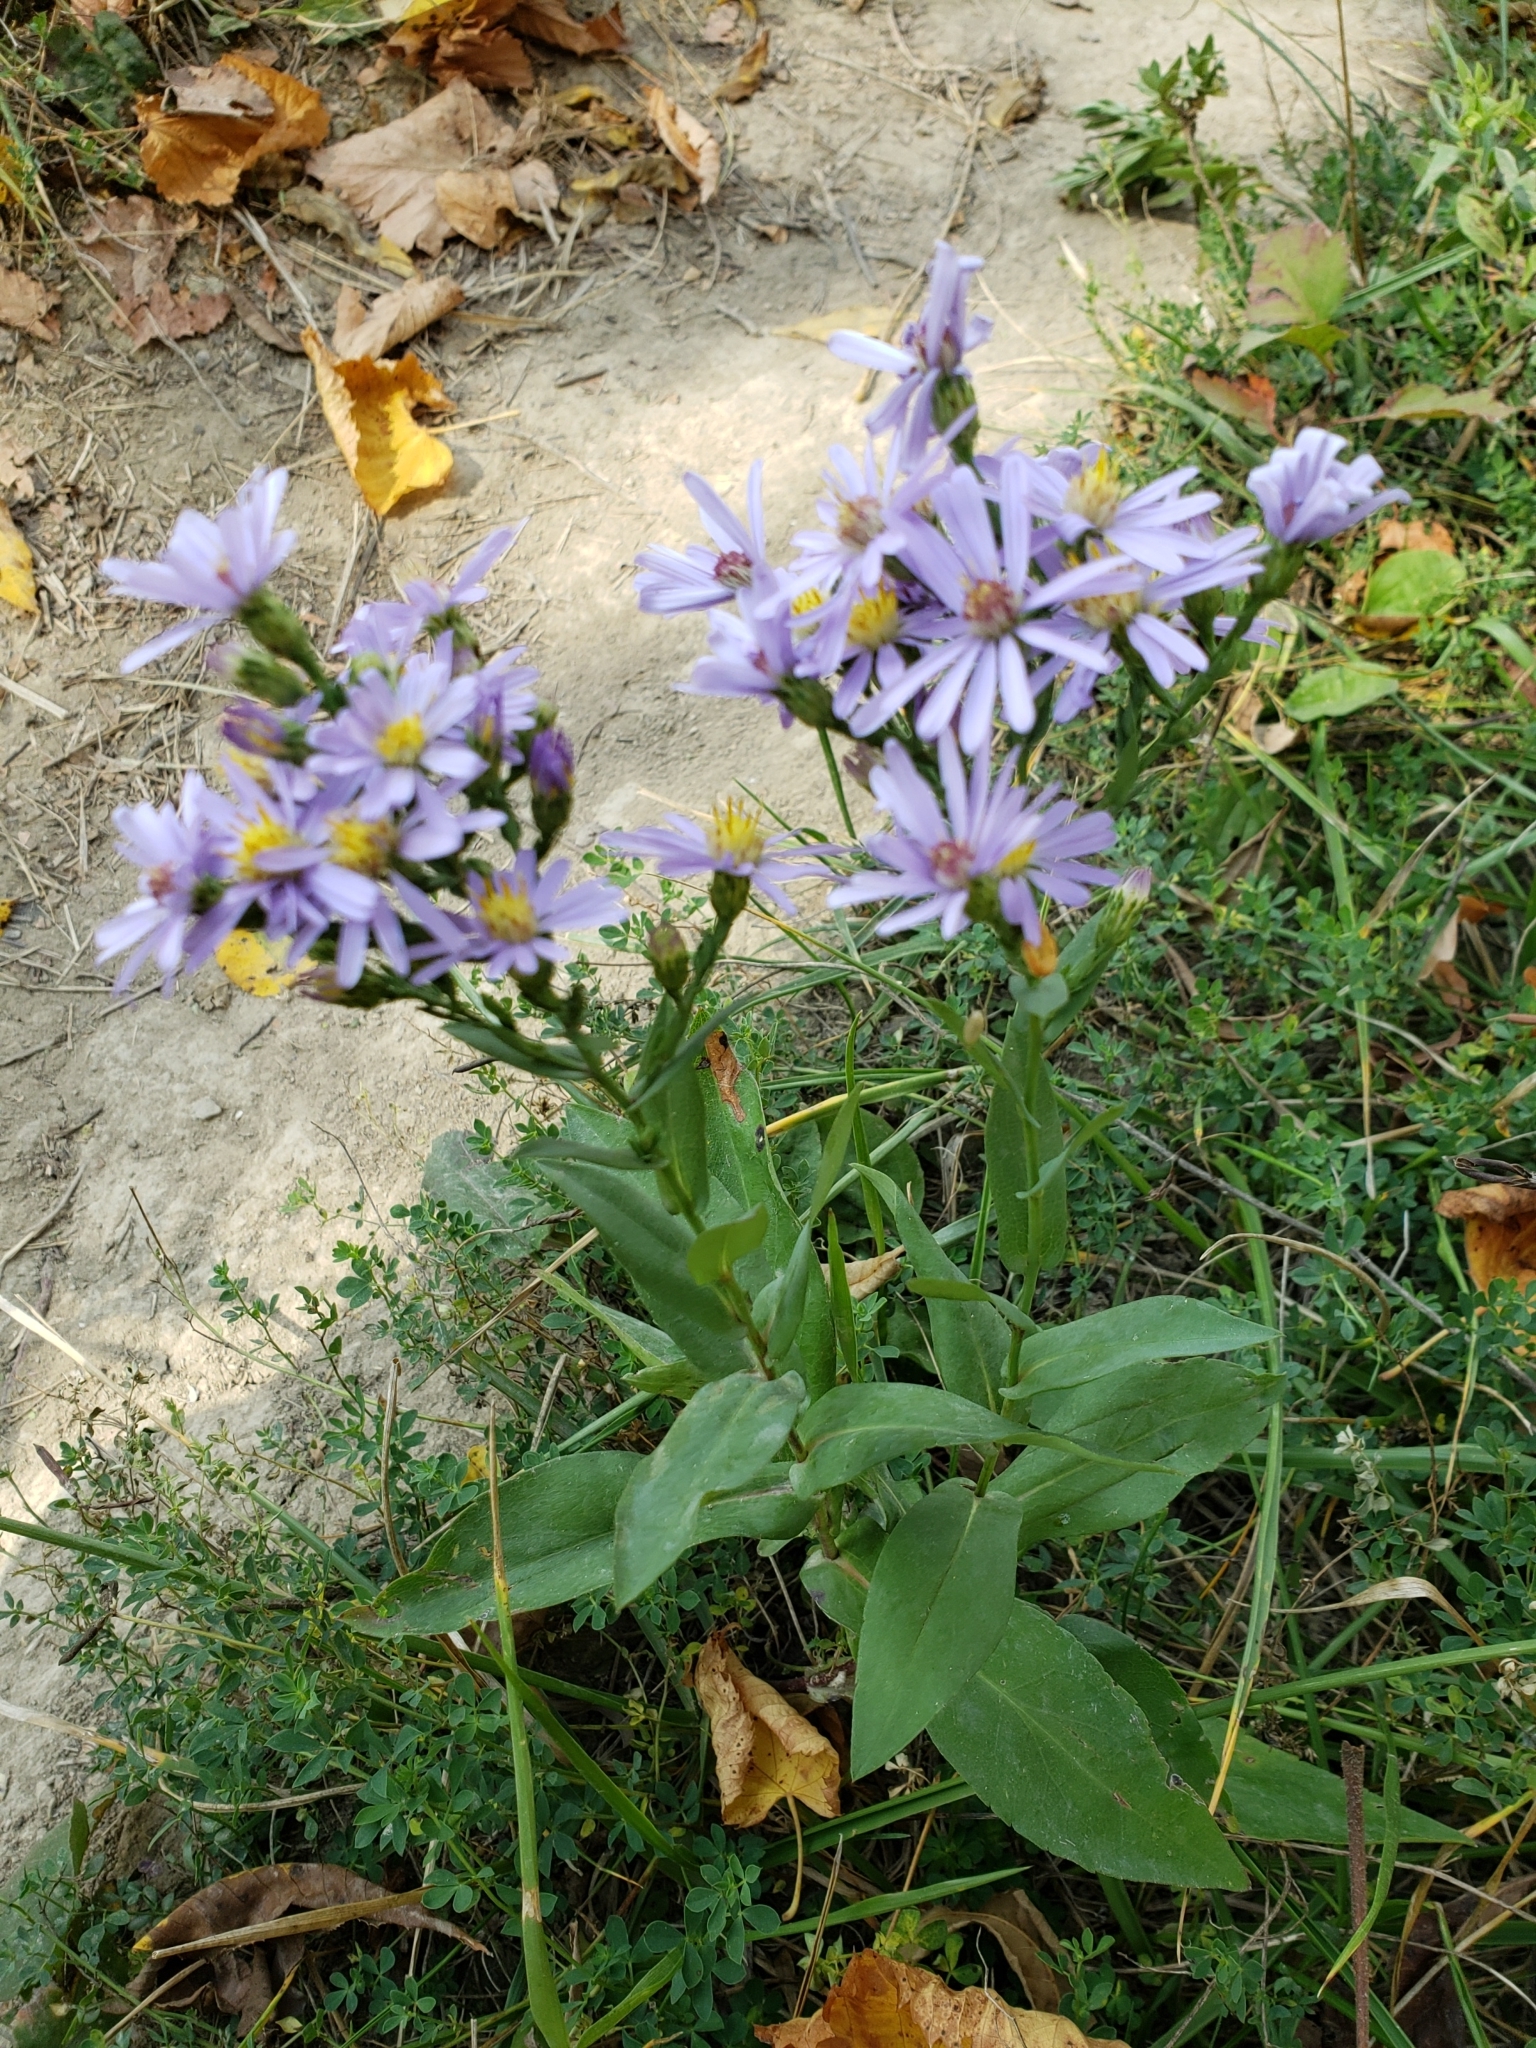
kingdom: Plantae
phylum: Tracheophyta
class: Magnoliopsida
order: Asterales
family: Asteraceae
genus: Symphyotrichum
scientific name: Symphyotrichum laeve
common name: Glaucous aster
